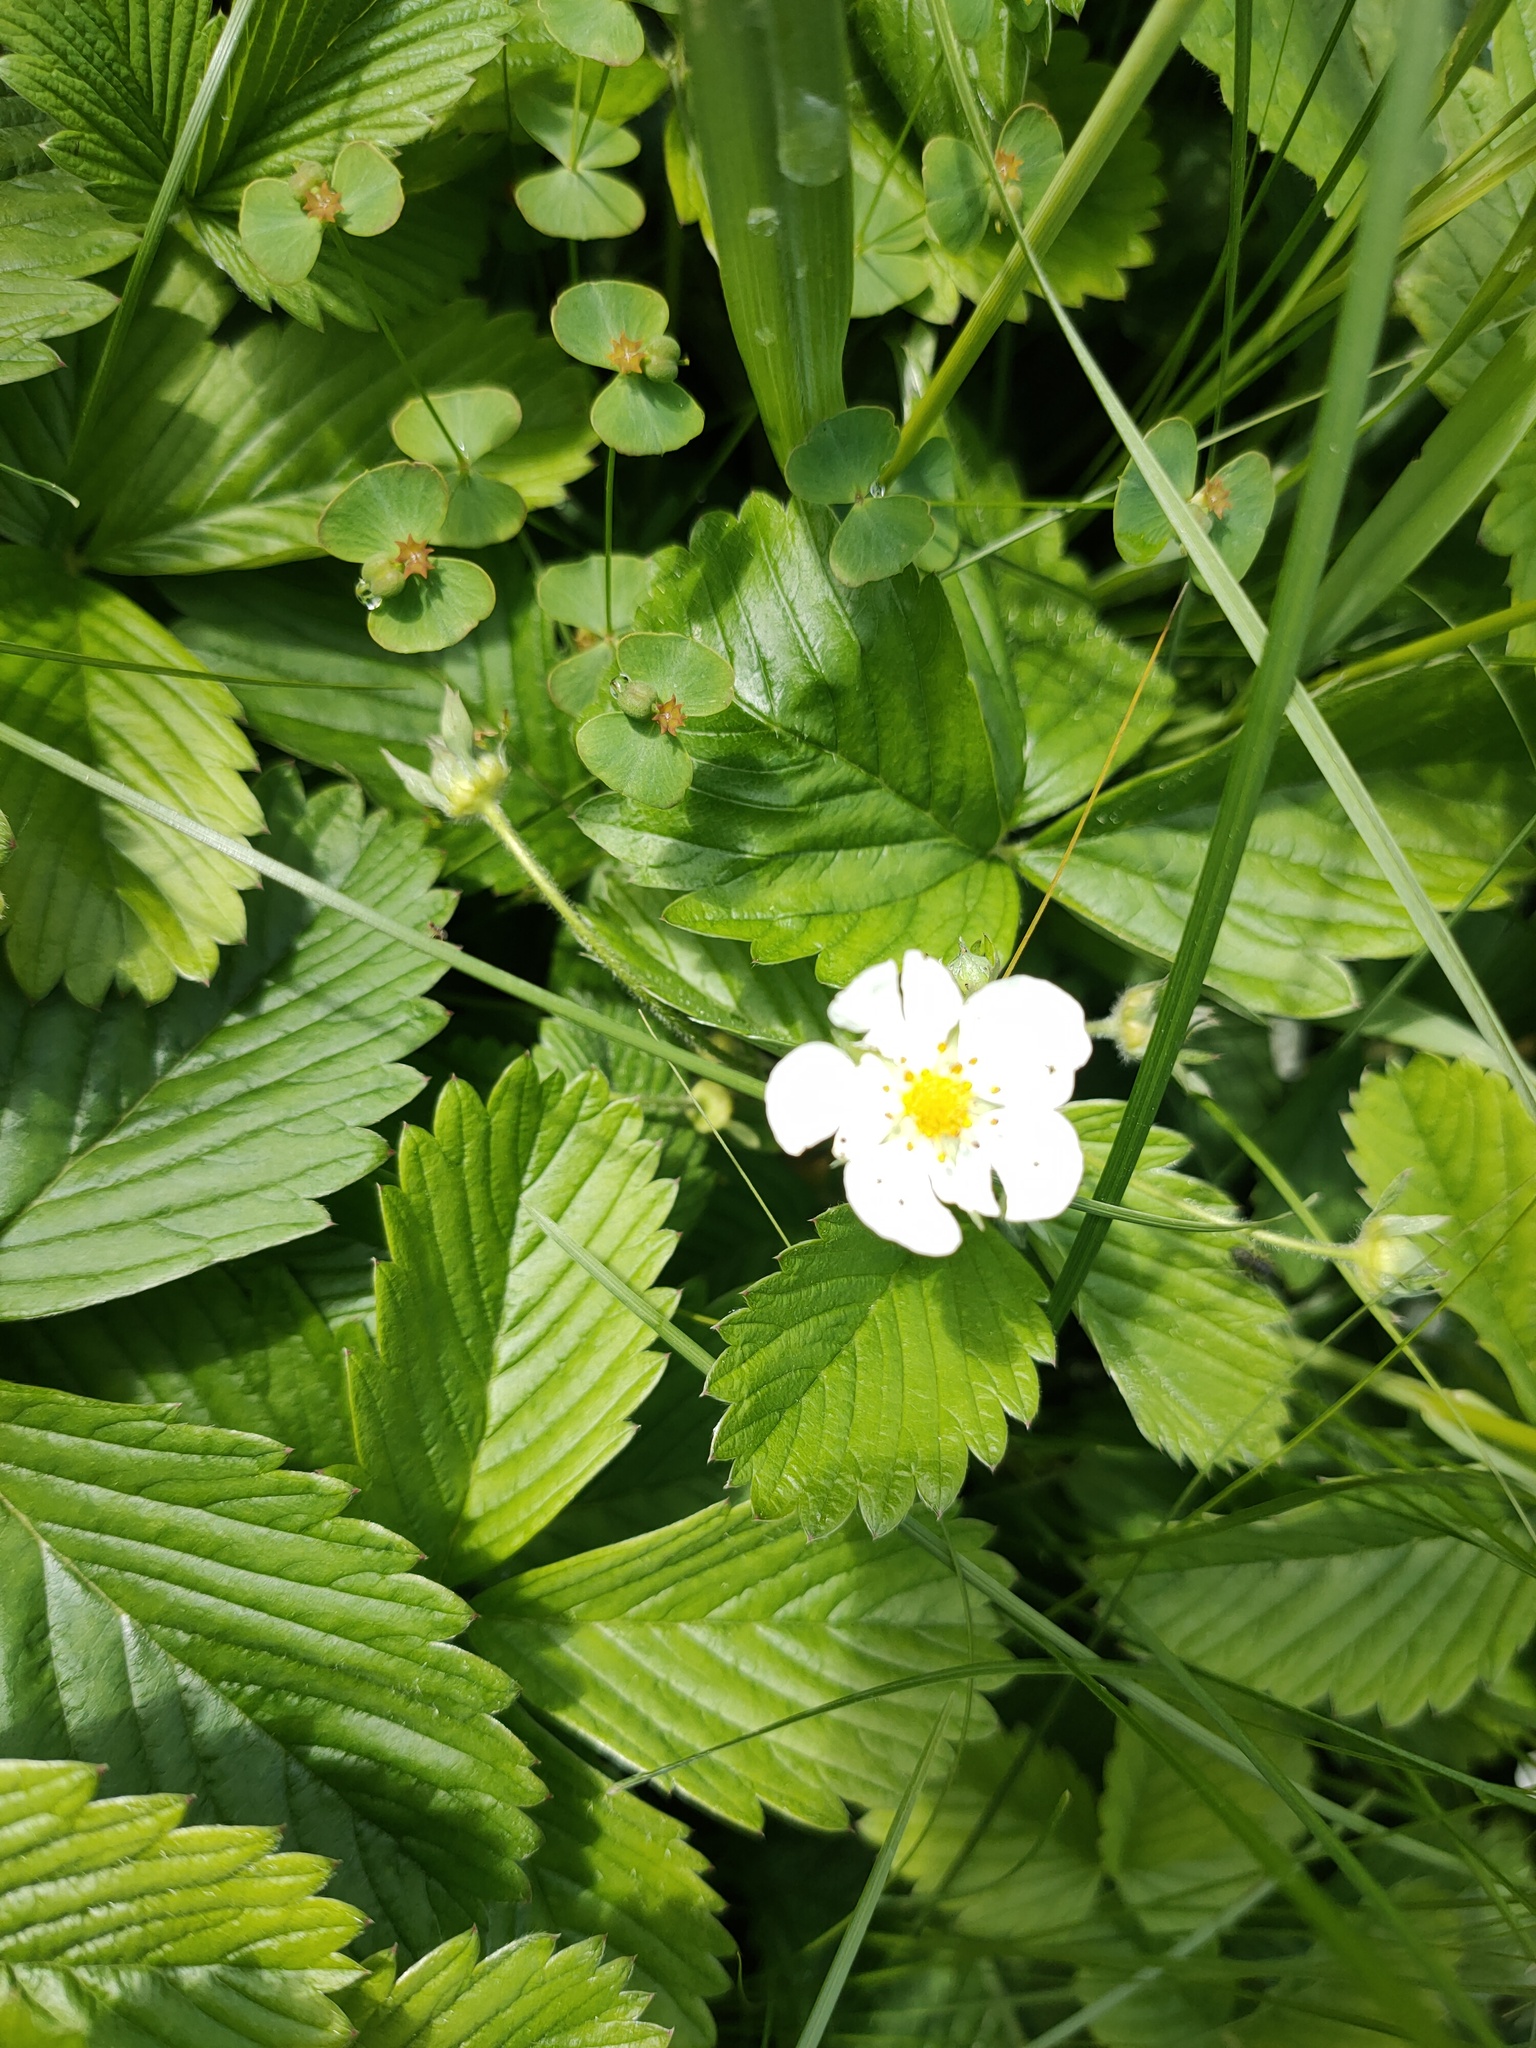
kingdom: Plantae
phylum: Tracheophyta
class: Magnoliopsida
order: Rosales
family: Rosaceae
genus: Fragaria
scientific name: Fragaria viridis
